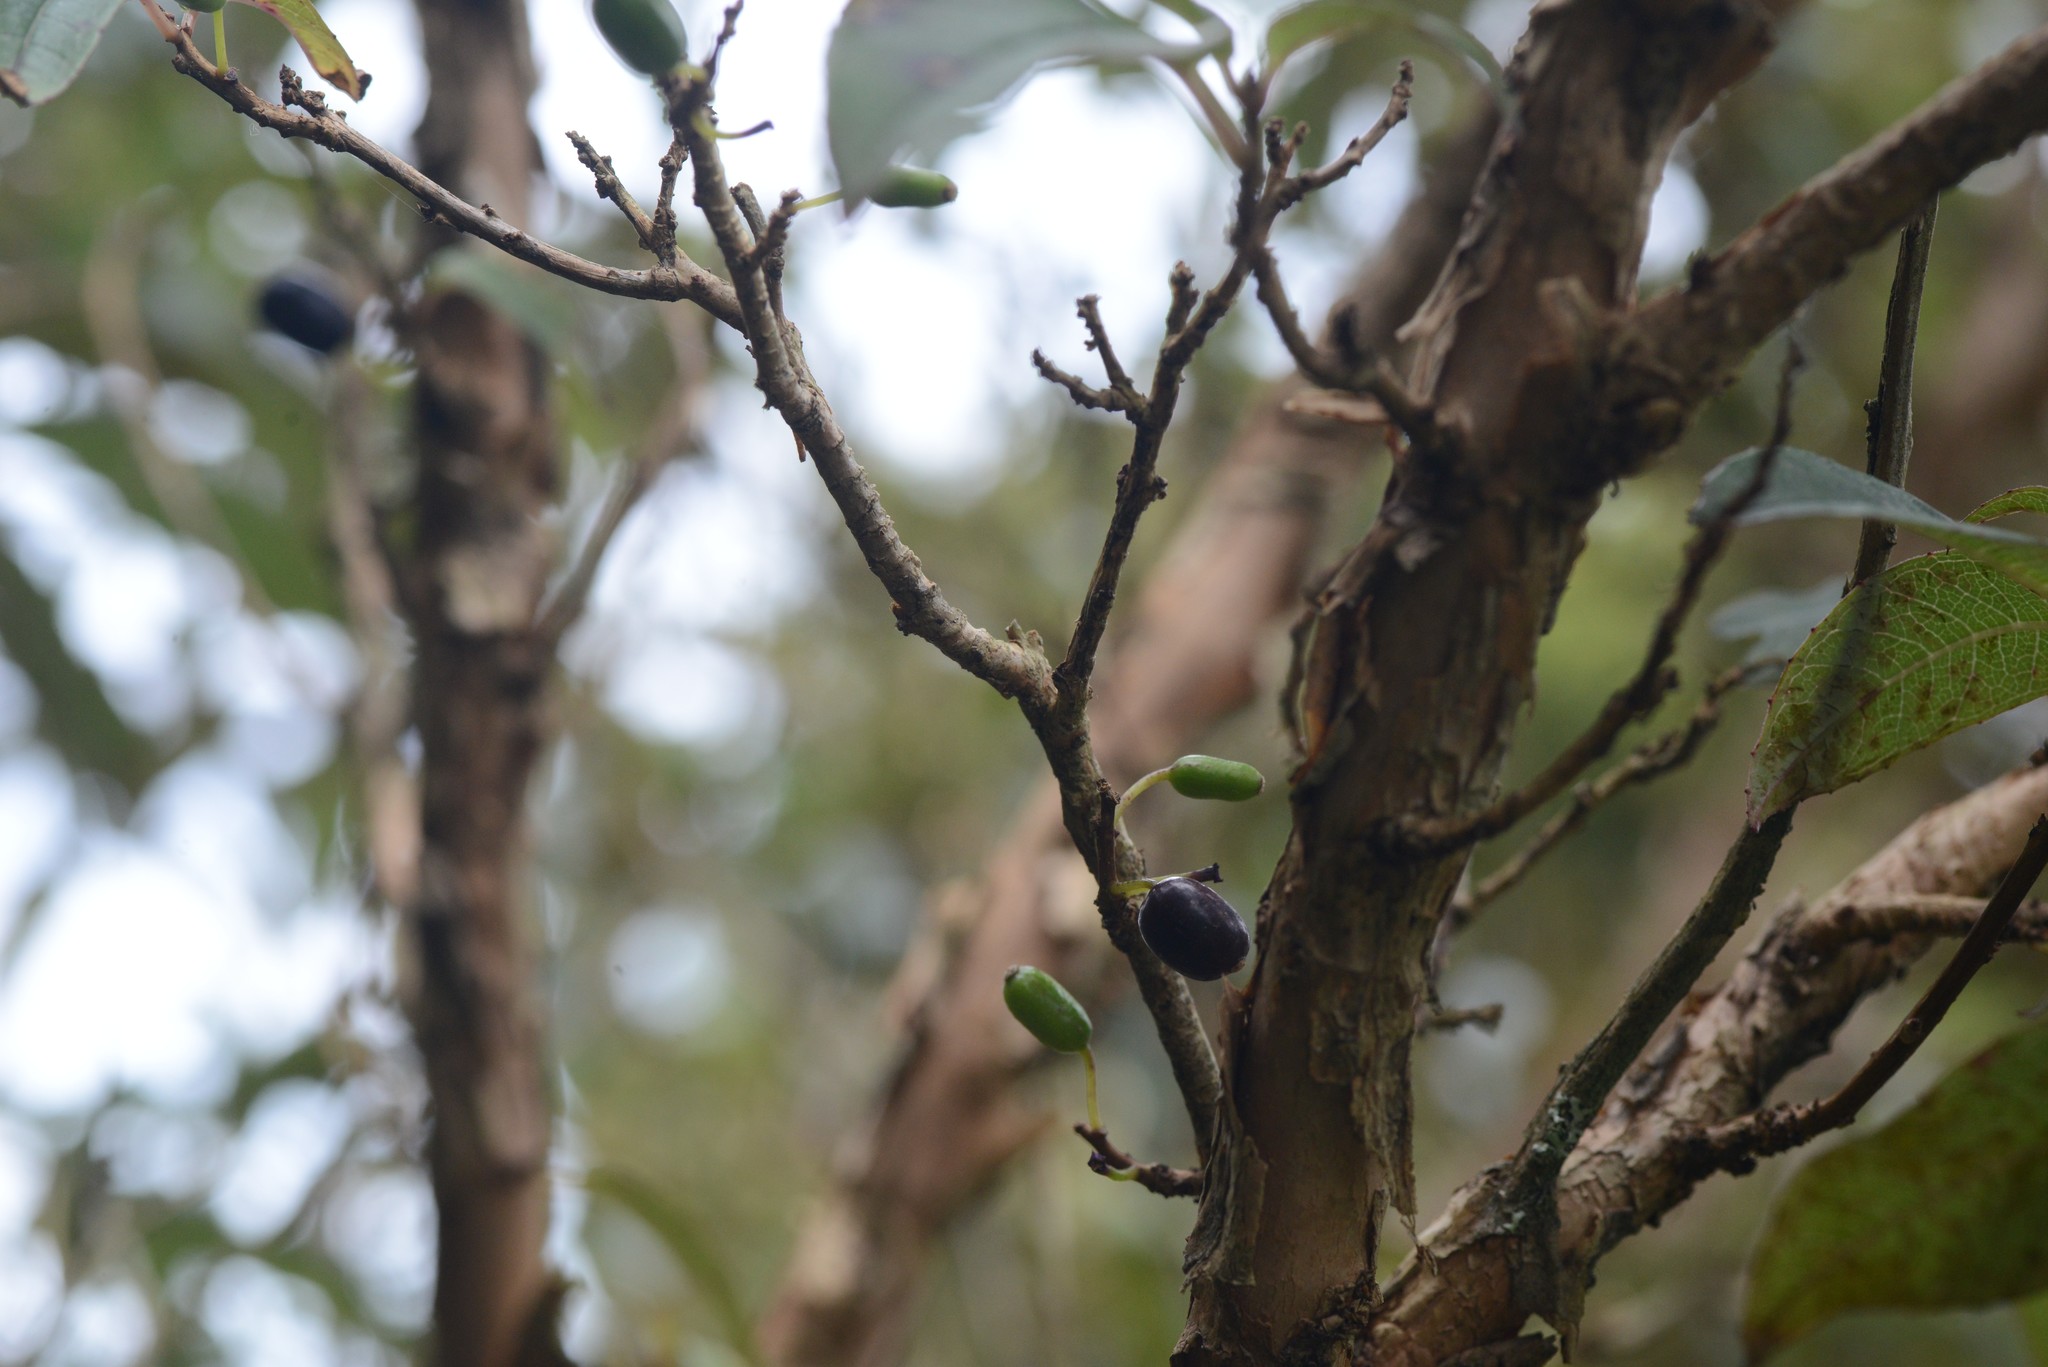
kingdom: Plantae
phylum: Tracheophyta
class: Magnoliopsida
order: Myrtales
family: Onagraceae
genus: Fuchsia
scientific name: Fuchsia excorticata
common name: Tree fuchsia
